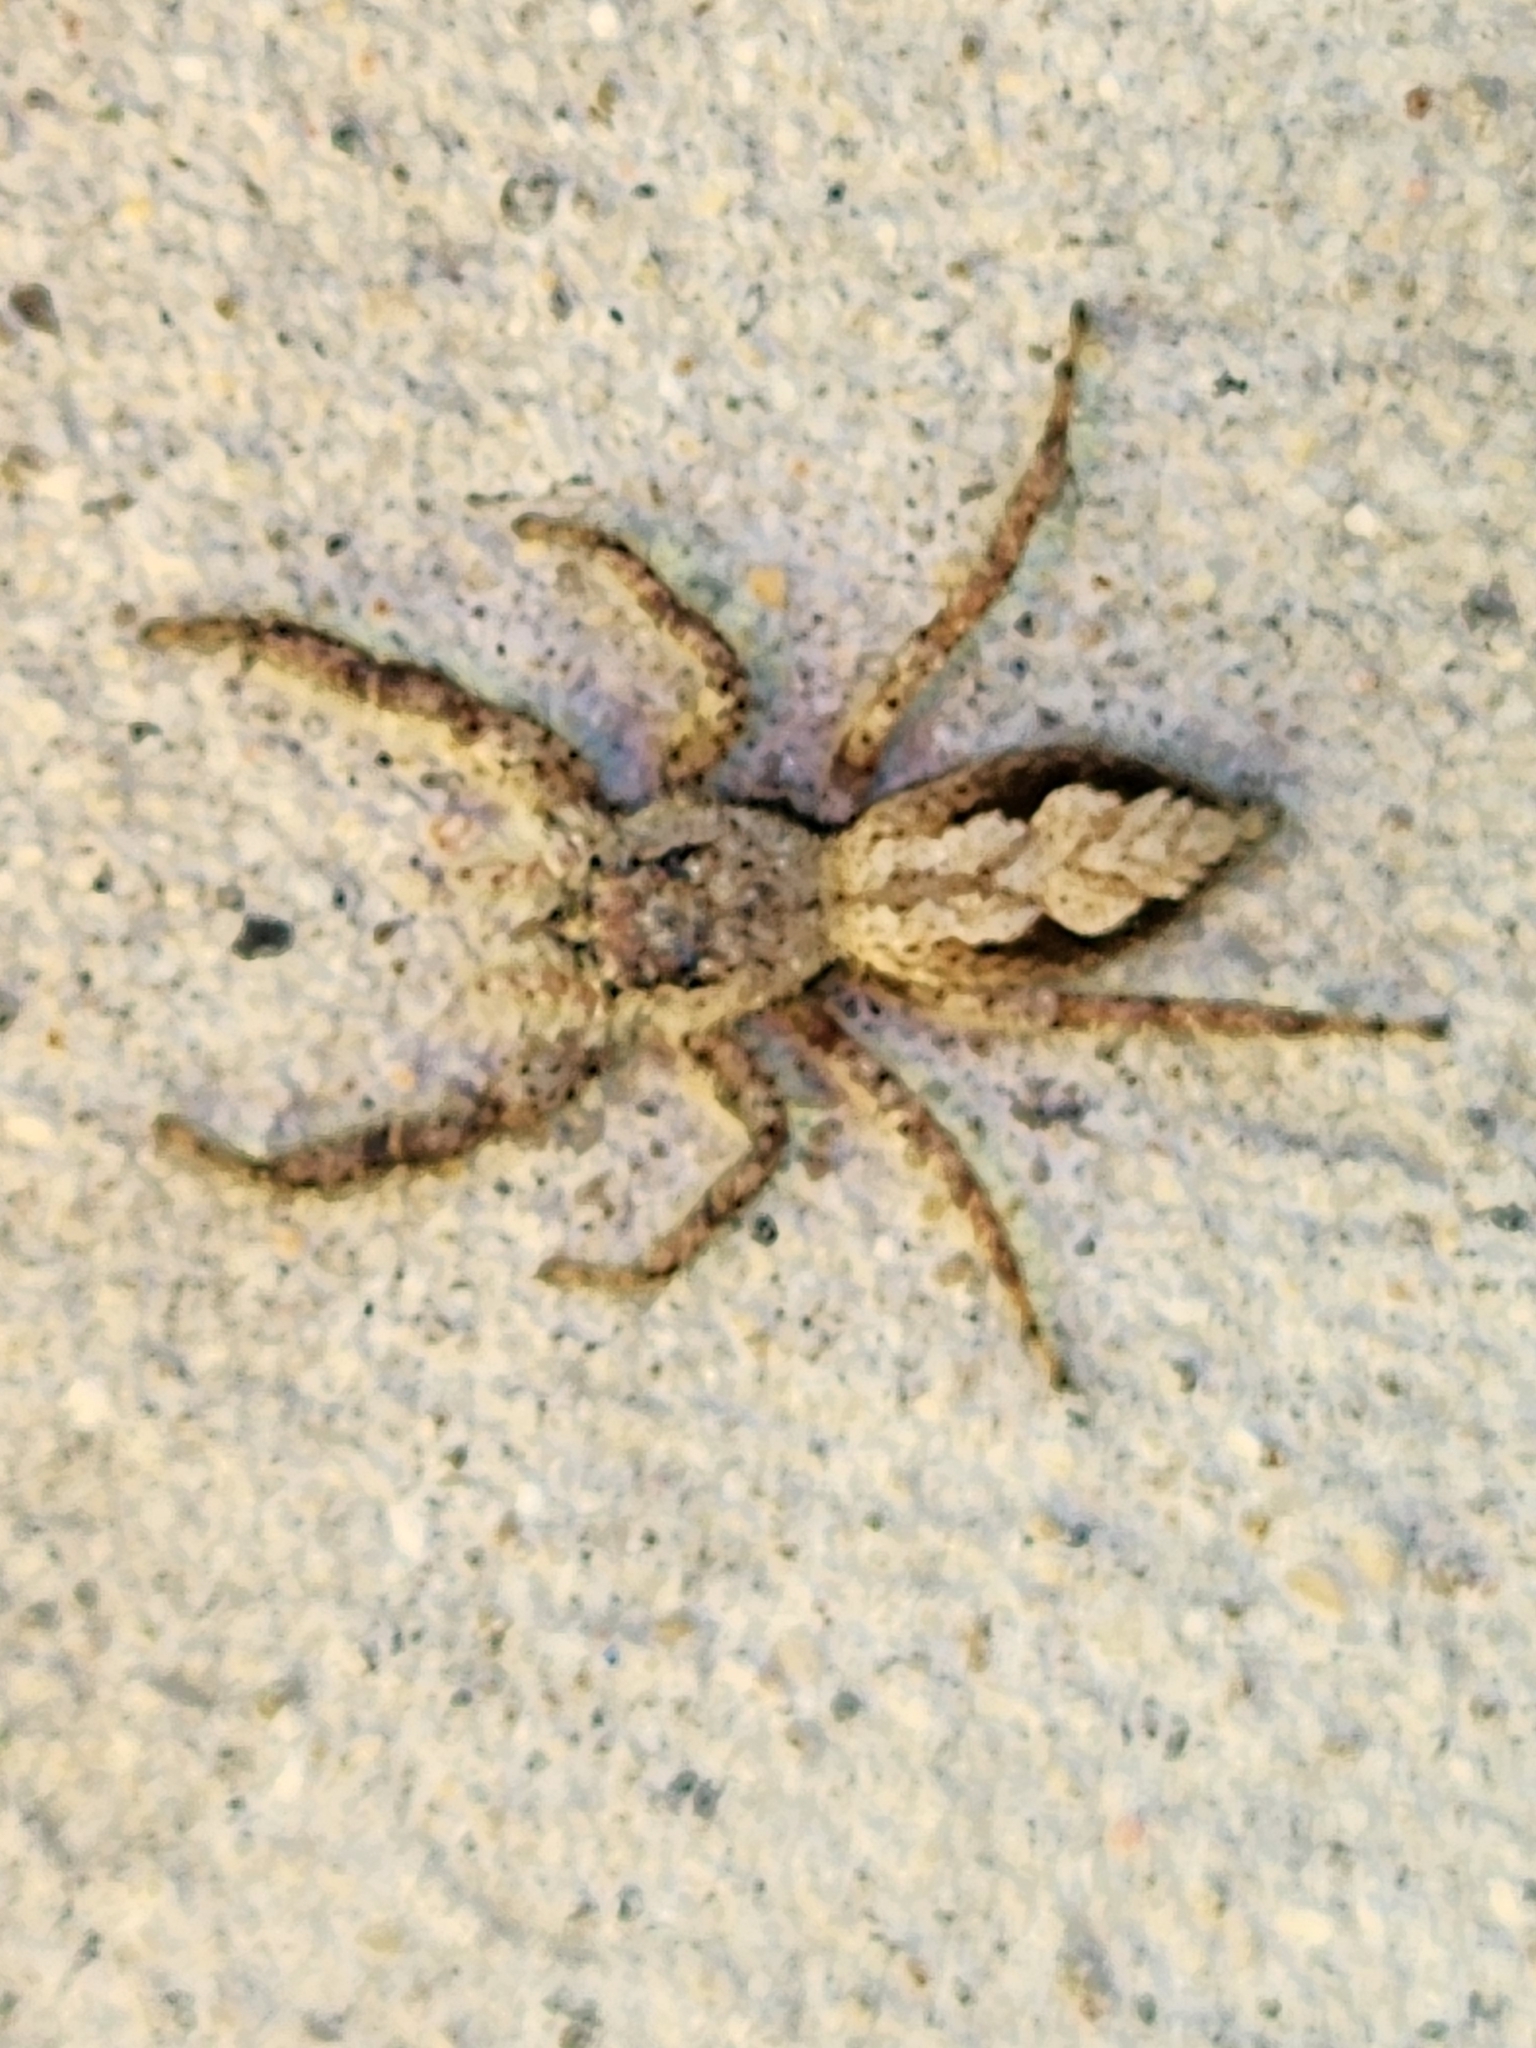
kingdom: Animalia
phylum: Arthropoda
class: Arachnida
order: Araneae
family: Salticidae
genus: Platycryptus
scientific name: Platycryptus undatus
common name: Tan jumping spider
